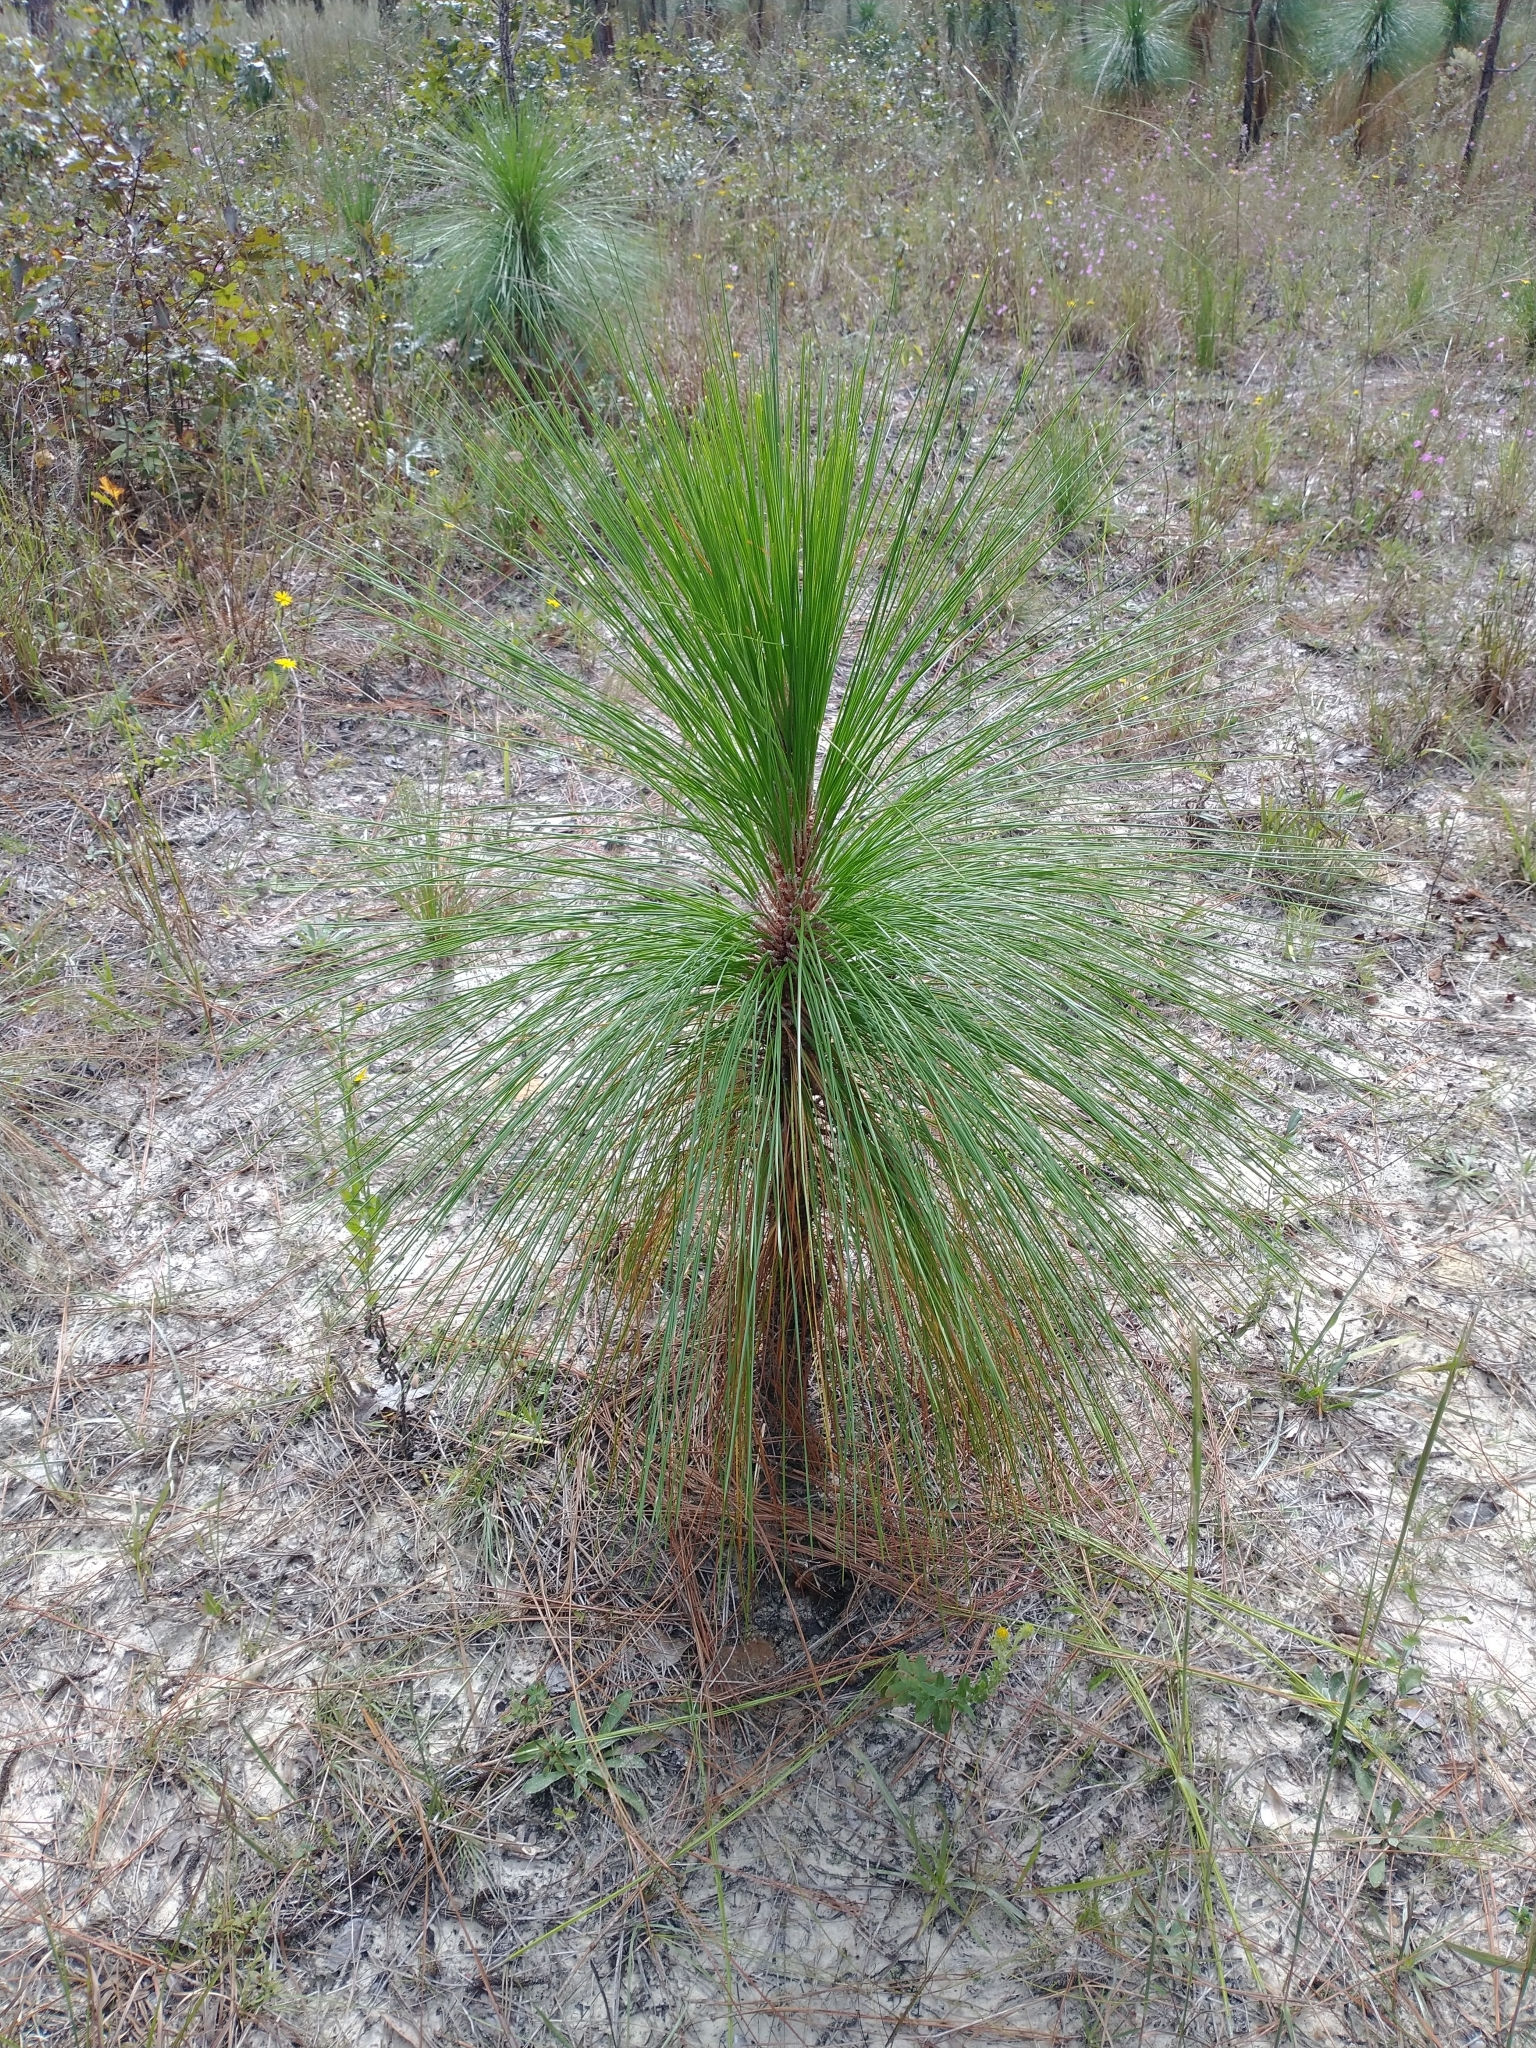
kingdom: Plantae
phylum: Tracheophyta
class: Pinopsida
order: Pinales
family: Pinaceae
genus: Pinus
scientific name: Pinus palustris
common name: Longleaf pine
